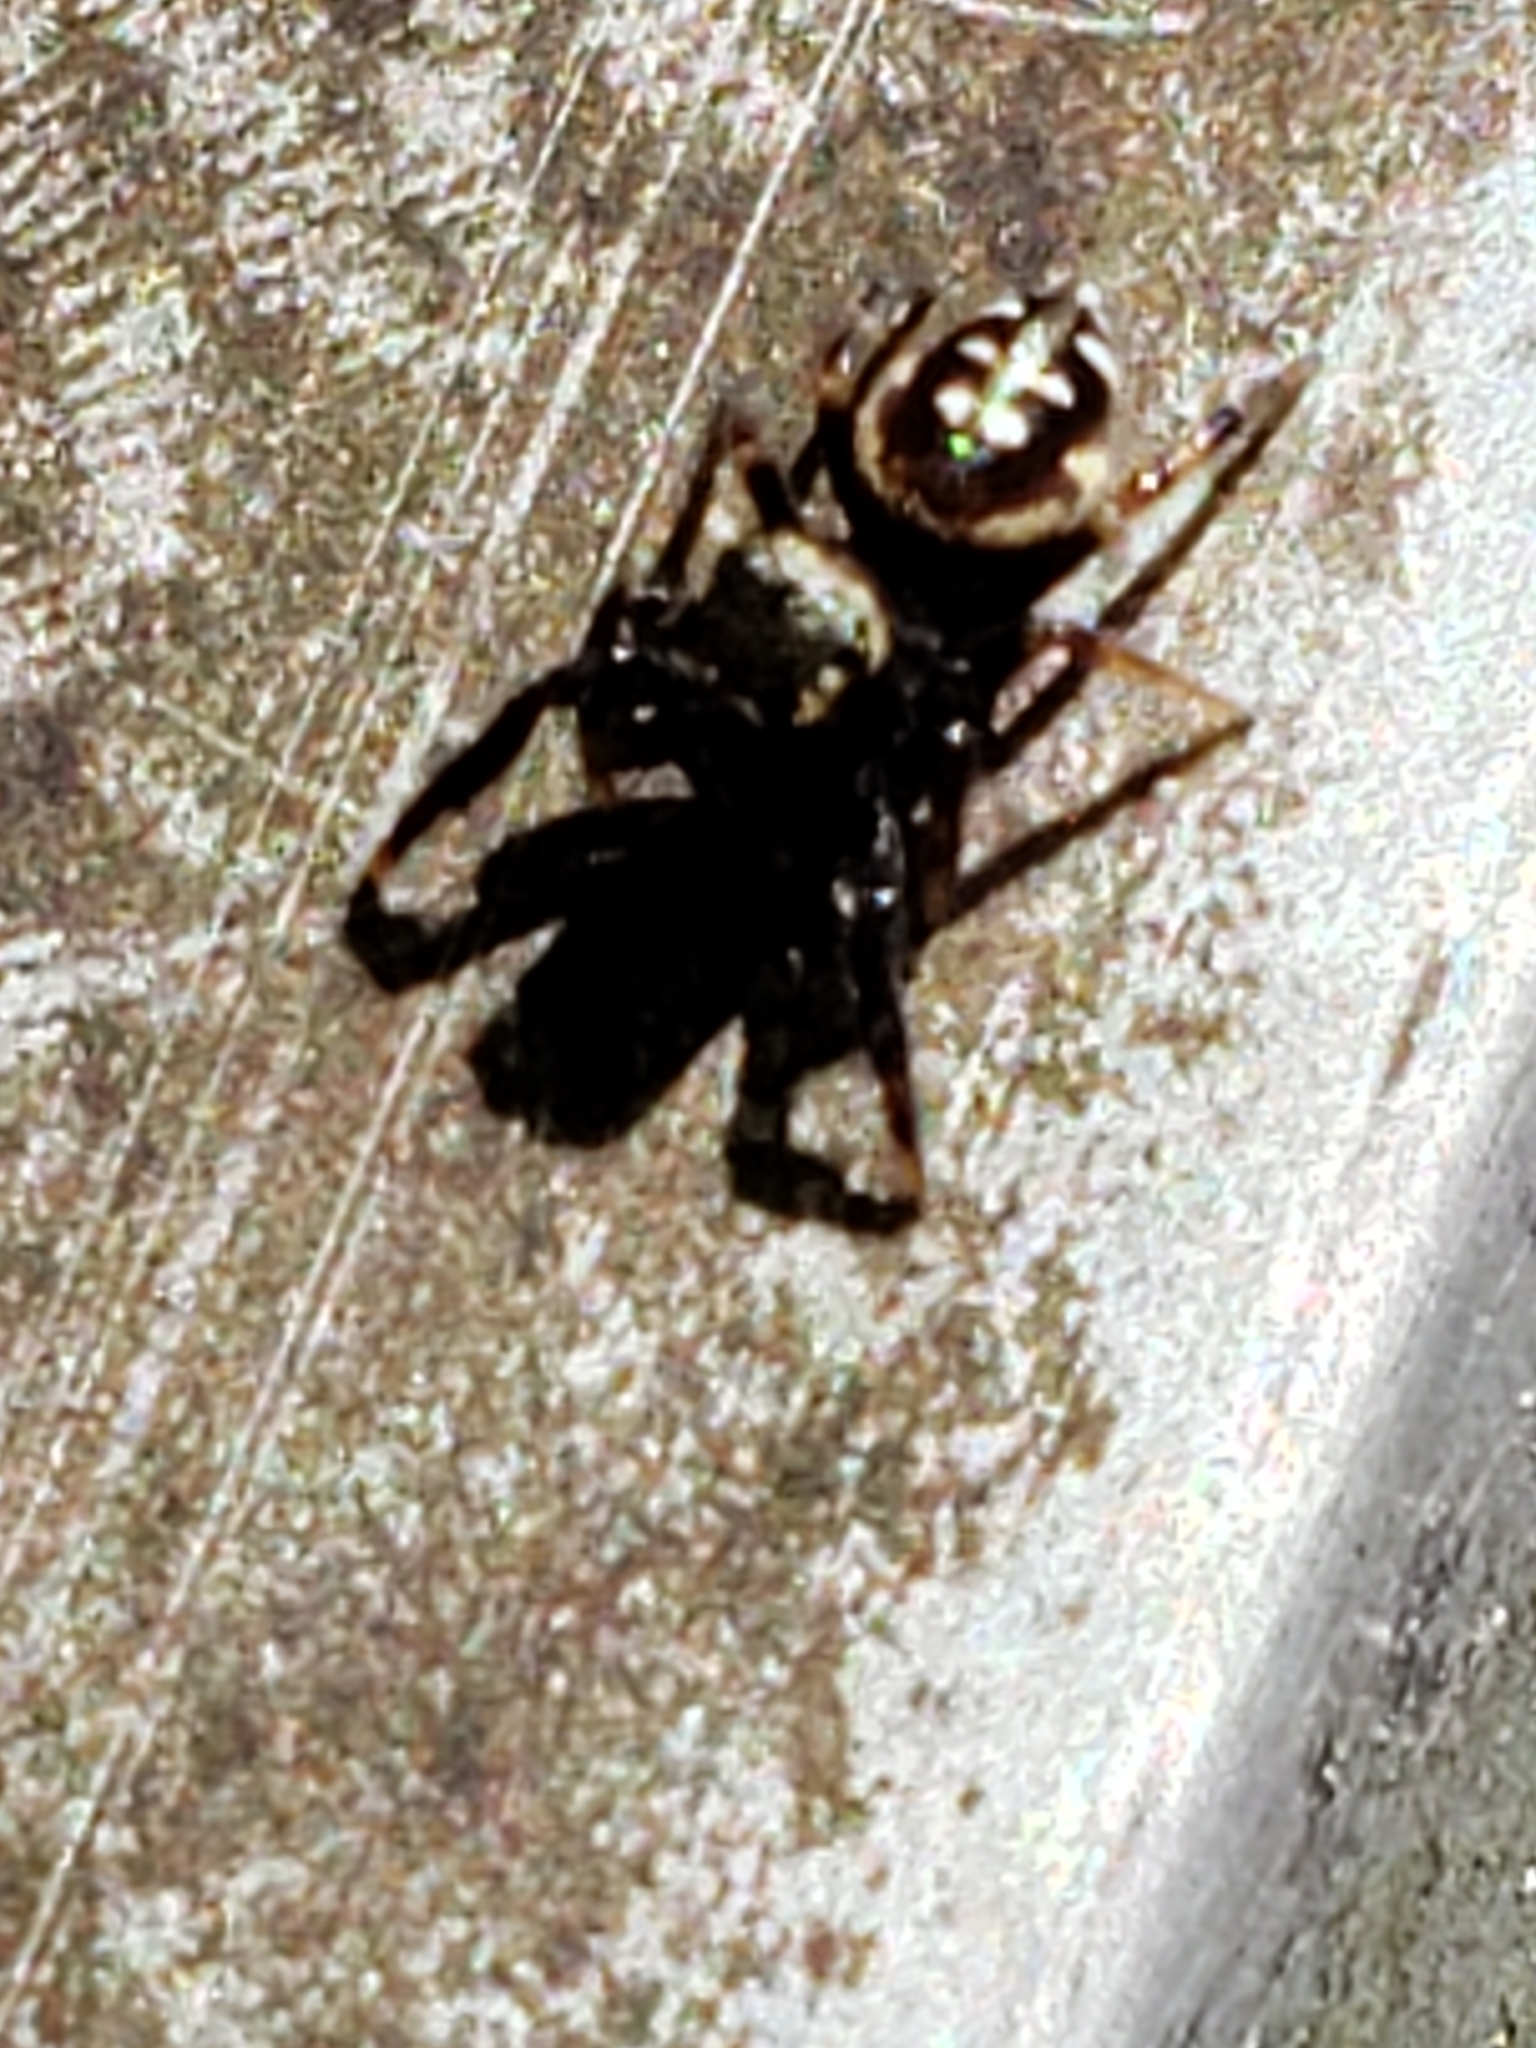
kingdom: Animalia
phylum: Arthropoda
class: Arachnida
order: Araneae
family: Salticidae
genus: Paraphidippus
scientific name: Paraphidippus aurantius
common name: Jumping spiders
